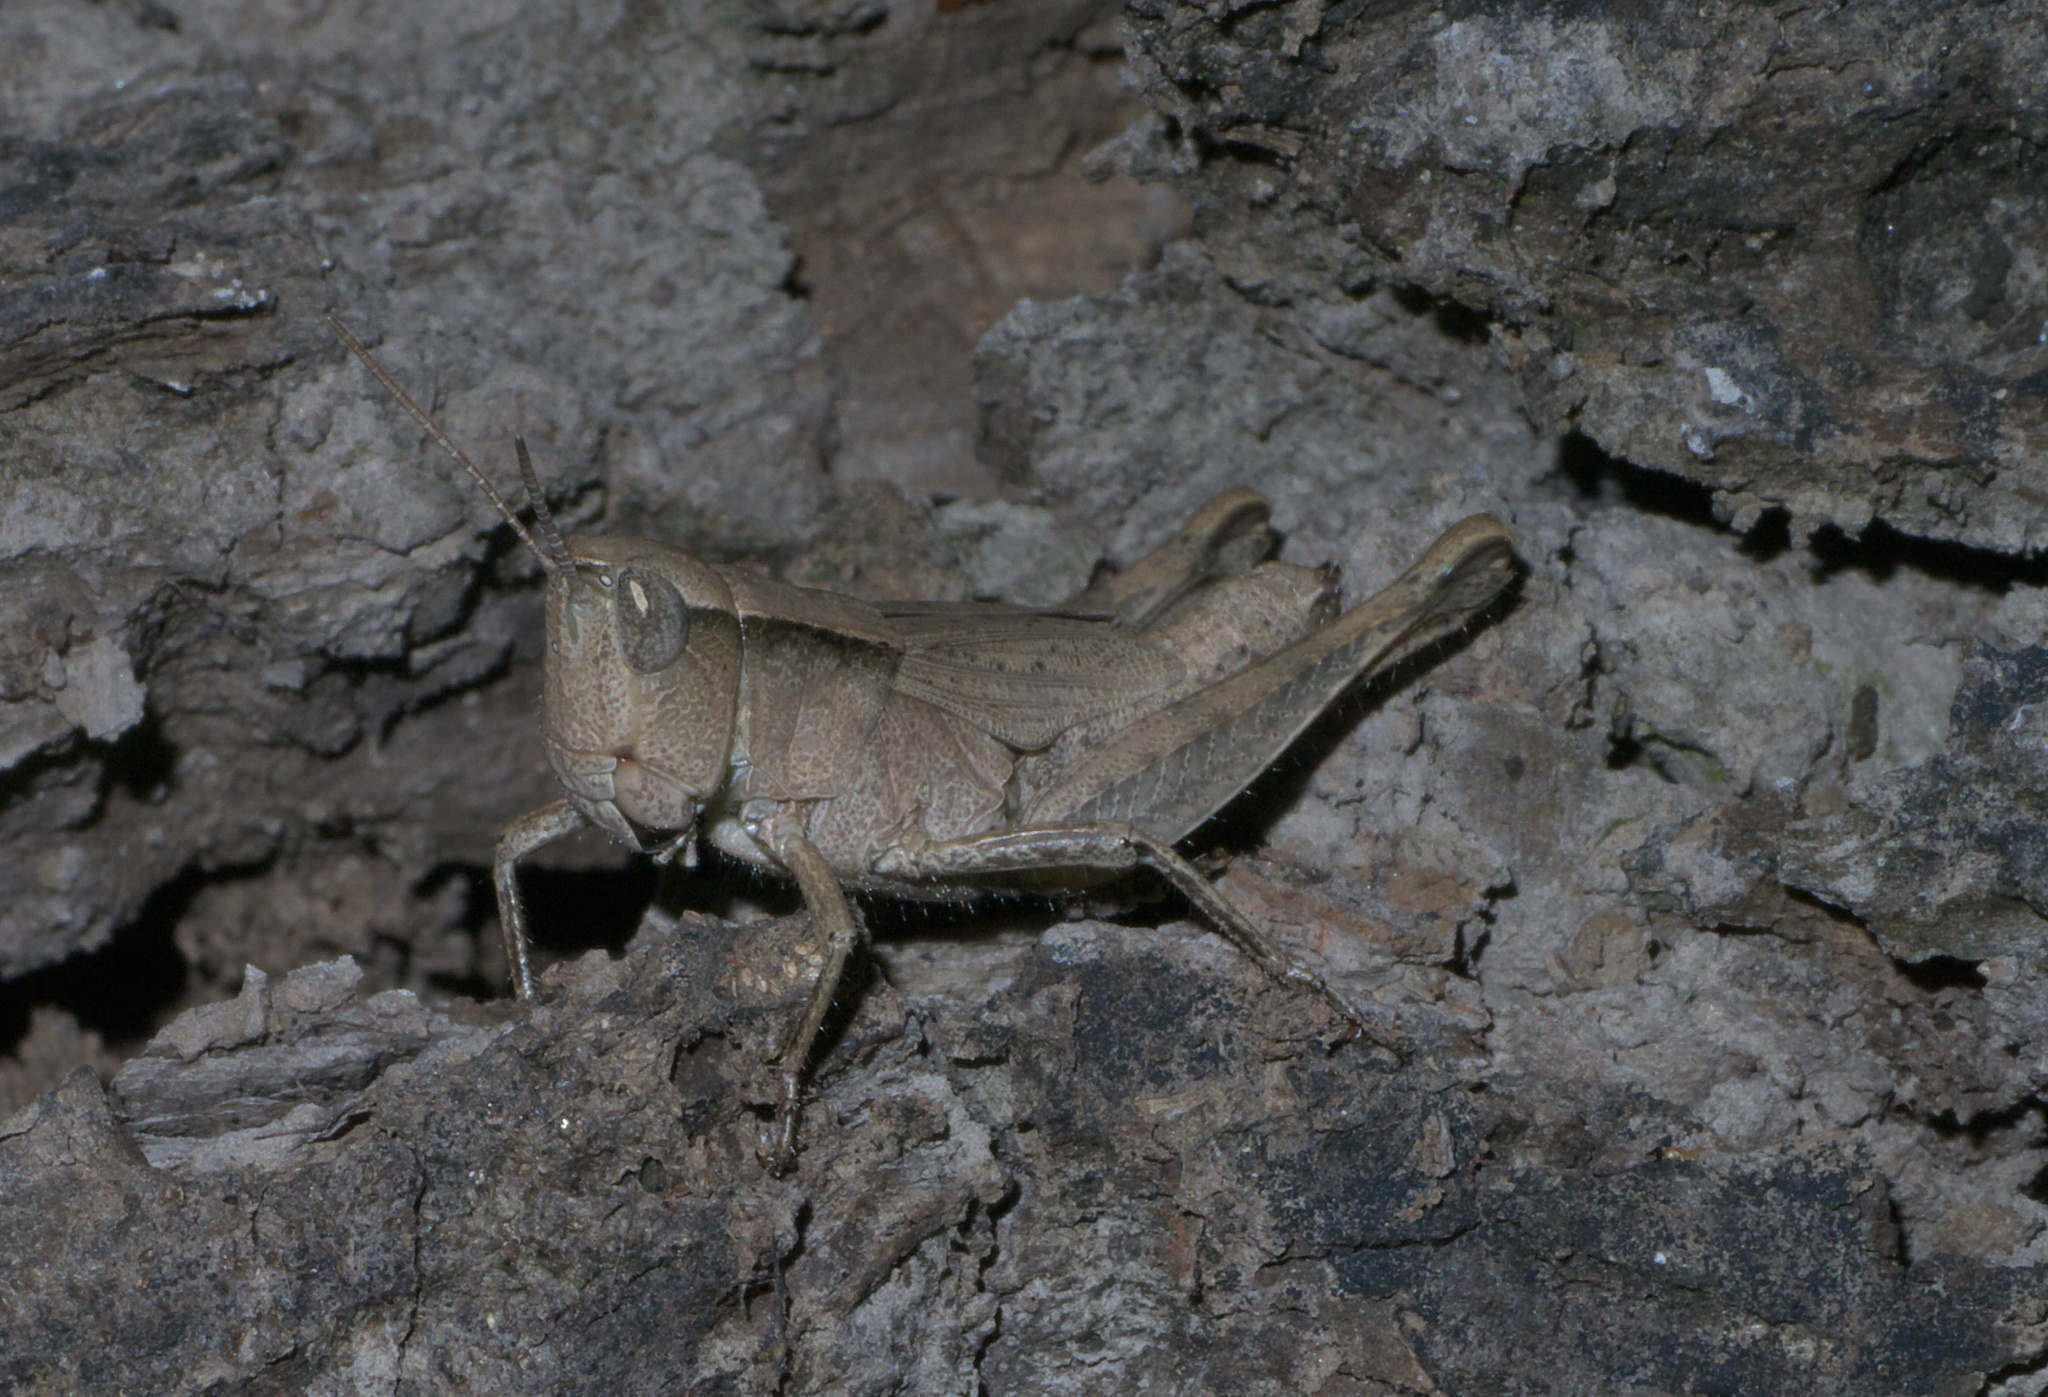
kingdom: Animalia
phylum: Arthropoda
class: Insecta
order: Orthoptera
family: Acrididae
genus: Dichromorpha
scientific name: Dichromorpha viridis
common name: Short-winged green grasshopper
